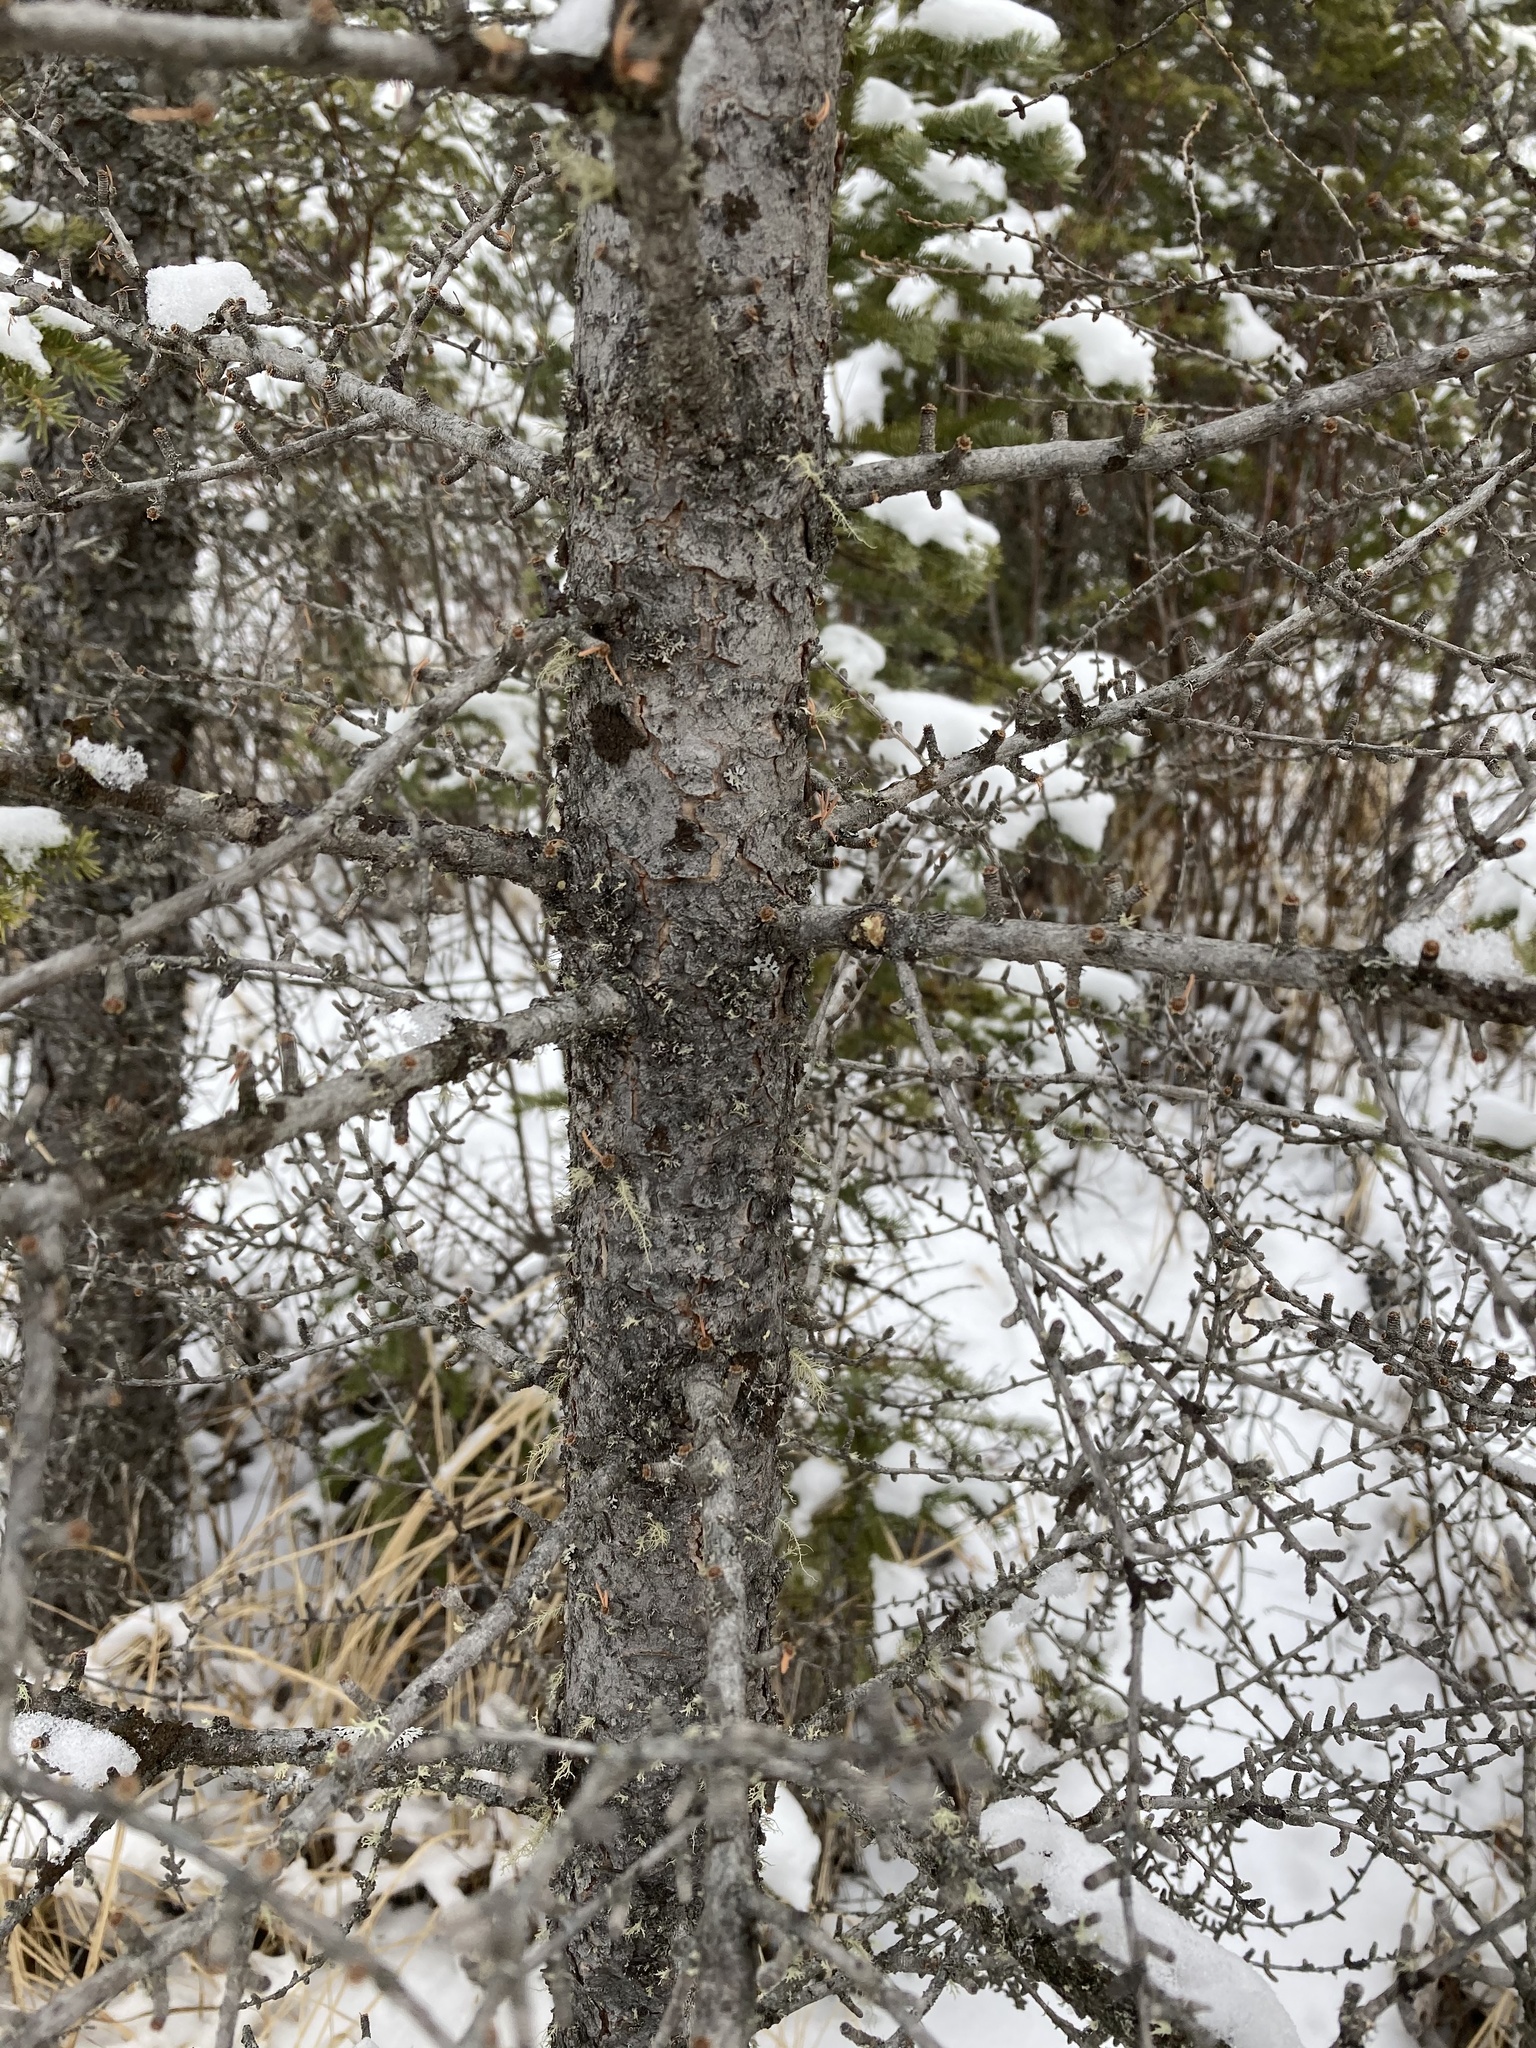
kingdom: Plantae
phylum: Tracheophyta
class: Pinopsida
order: Pinales
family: Pinaceae
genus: Larix
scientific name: Larix laricina
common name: American larch
